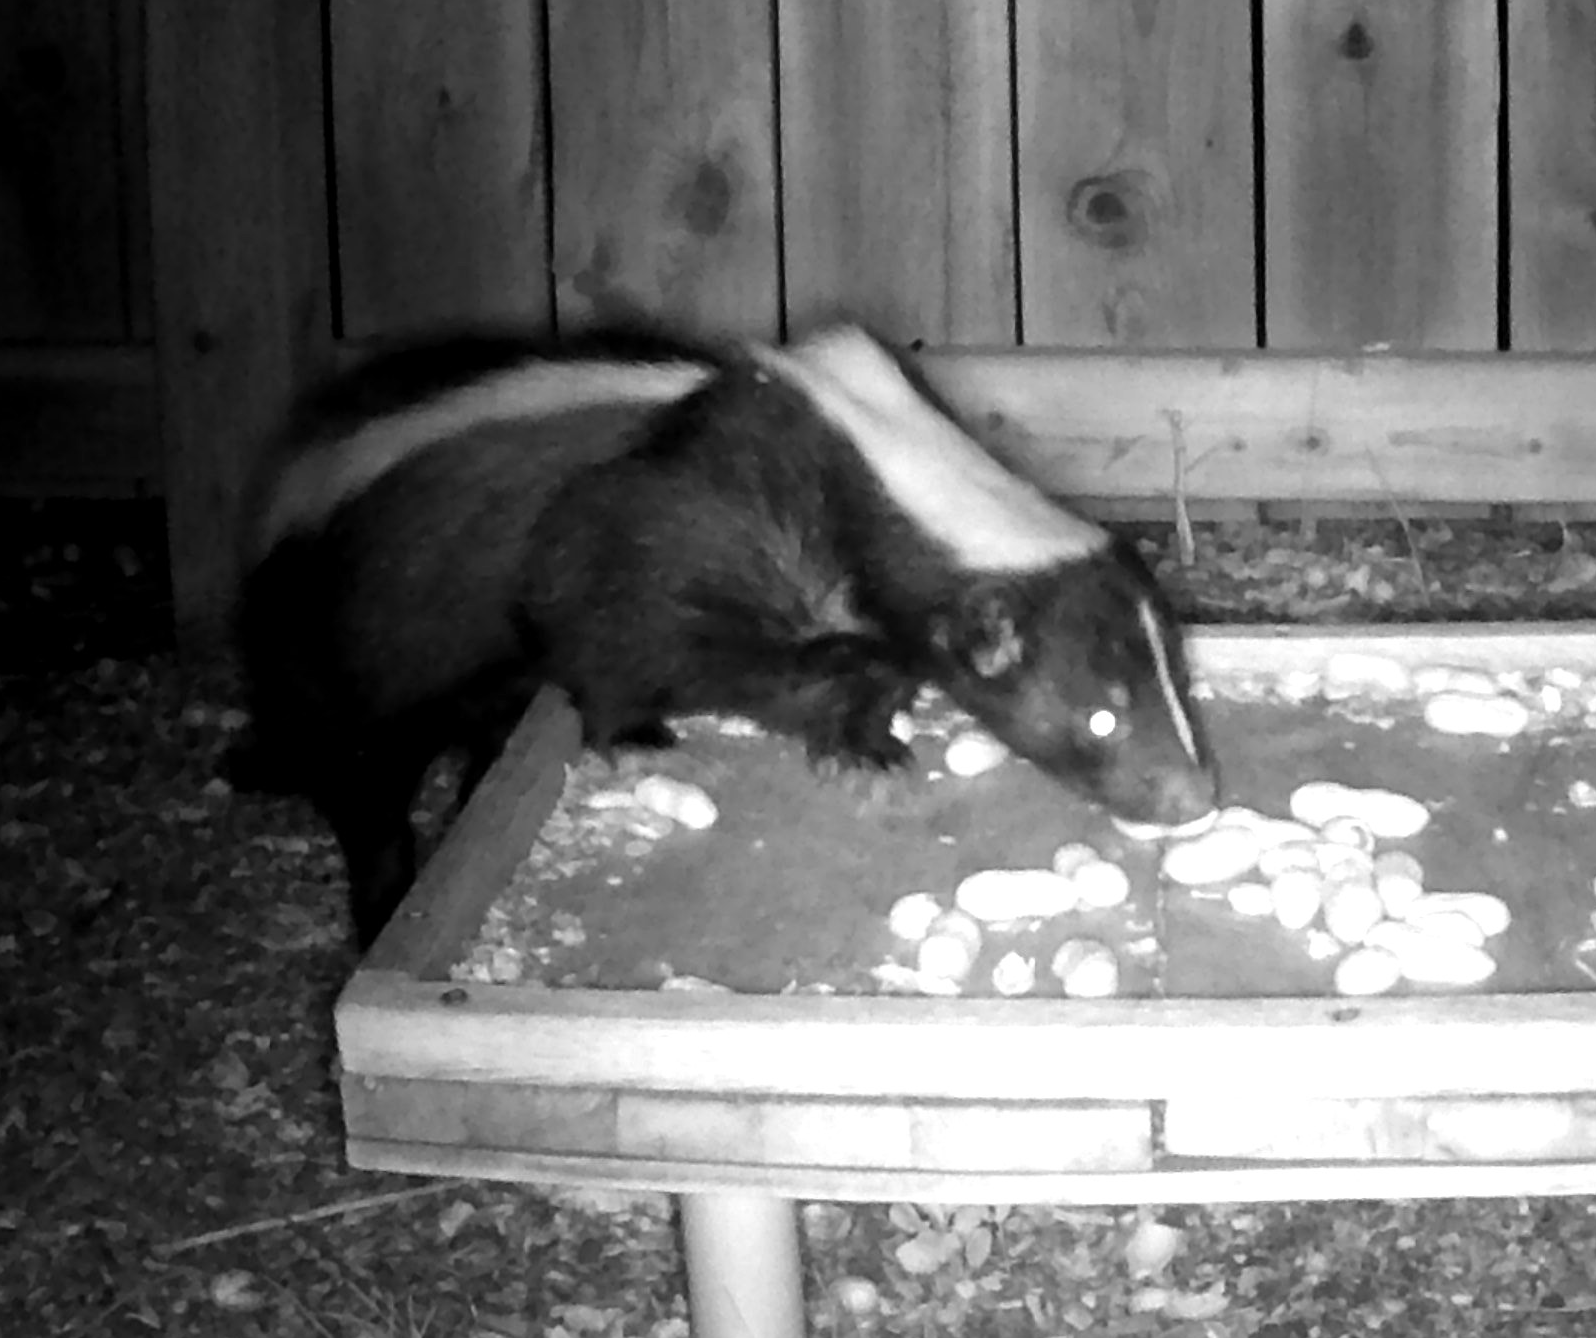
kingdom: Animalia
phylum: Chordata
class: Mammalia
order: Carnivora
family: Mephitidae
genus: Mephitis
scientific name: Mephitis mephitis
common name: Striped skunk
